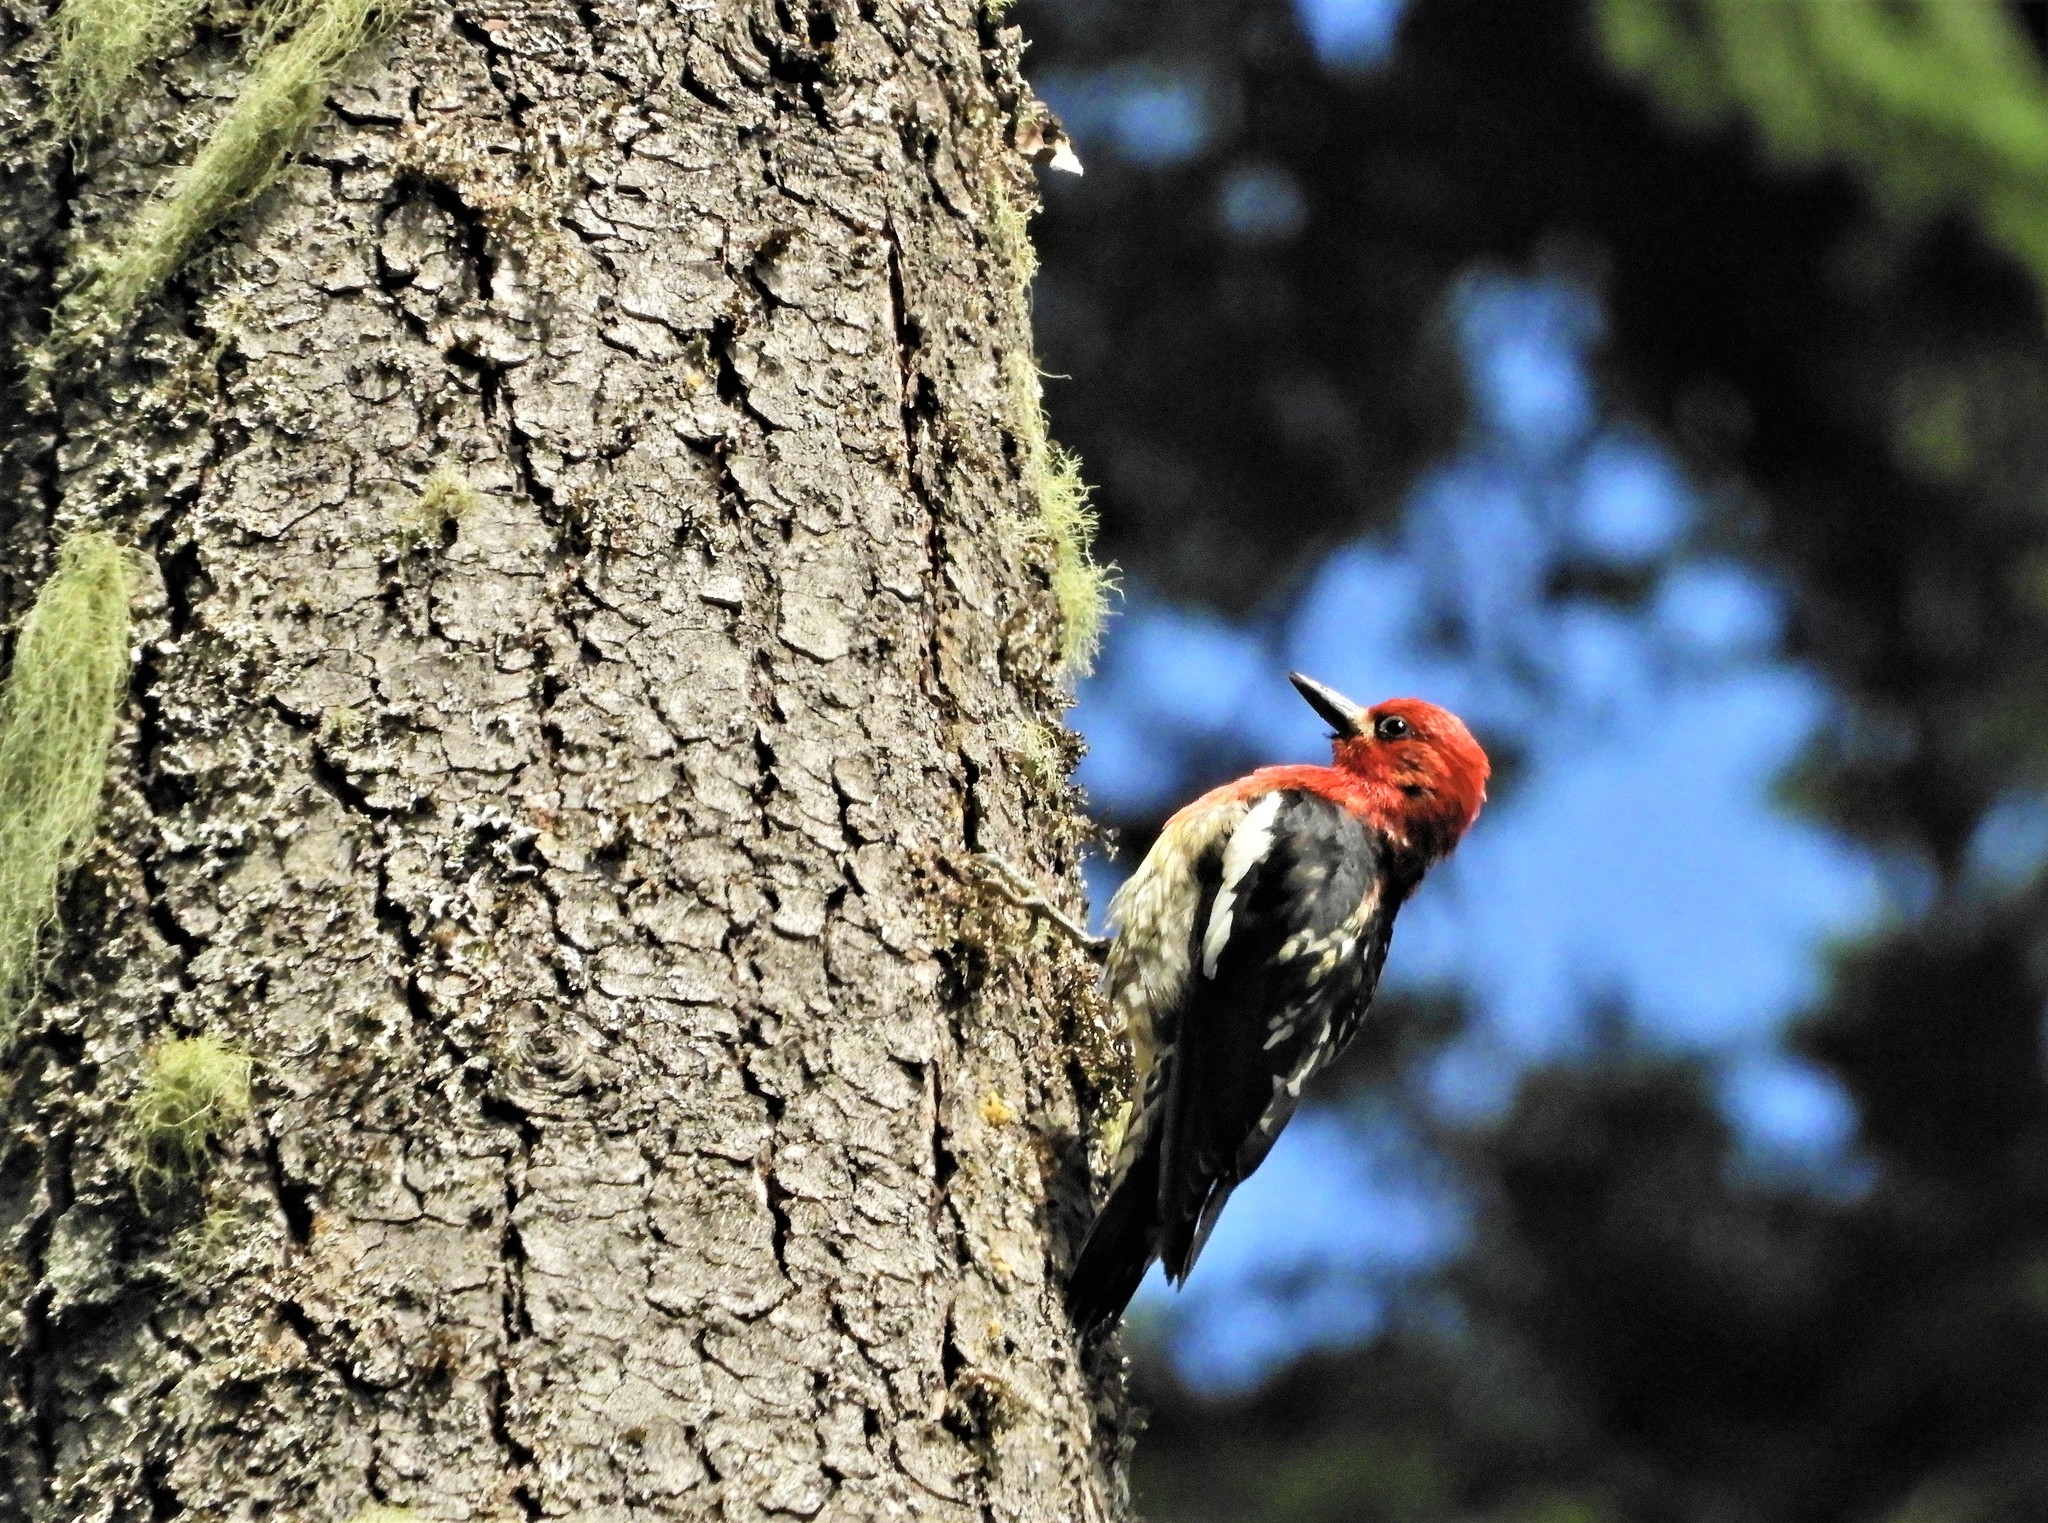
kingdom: Animalia
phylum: Chordata
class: Aves
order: Piciformes
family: Picidae
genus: Sphyrapicus
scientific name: Sphyrapicus ruber
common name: Red-breasted sapsucker
